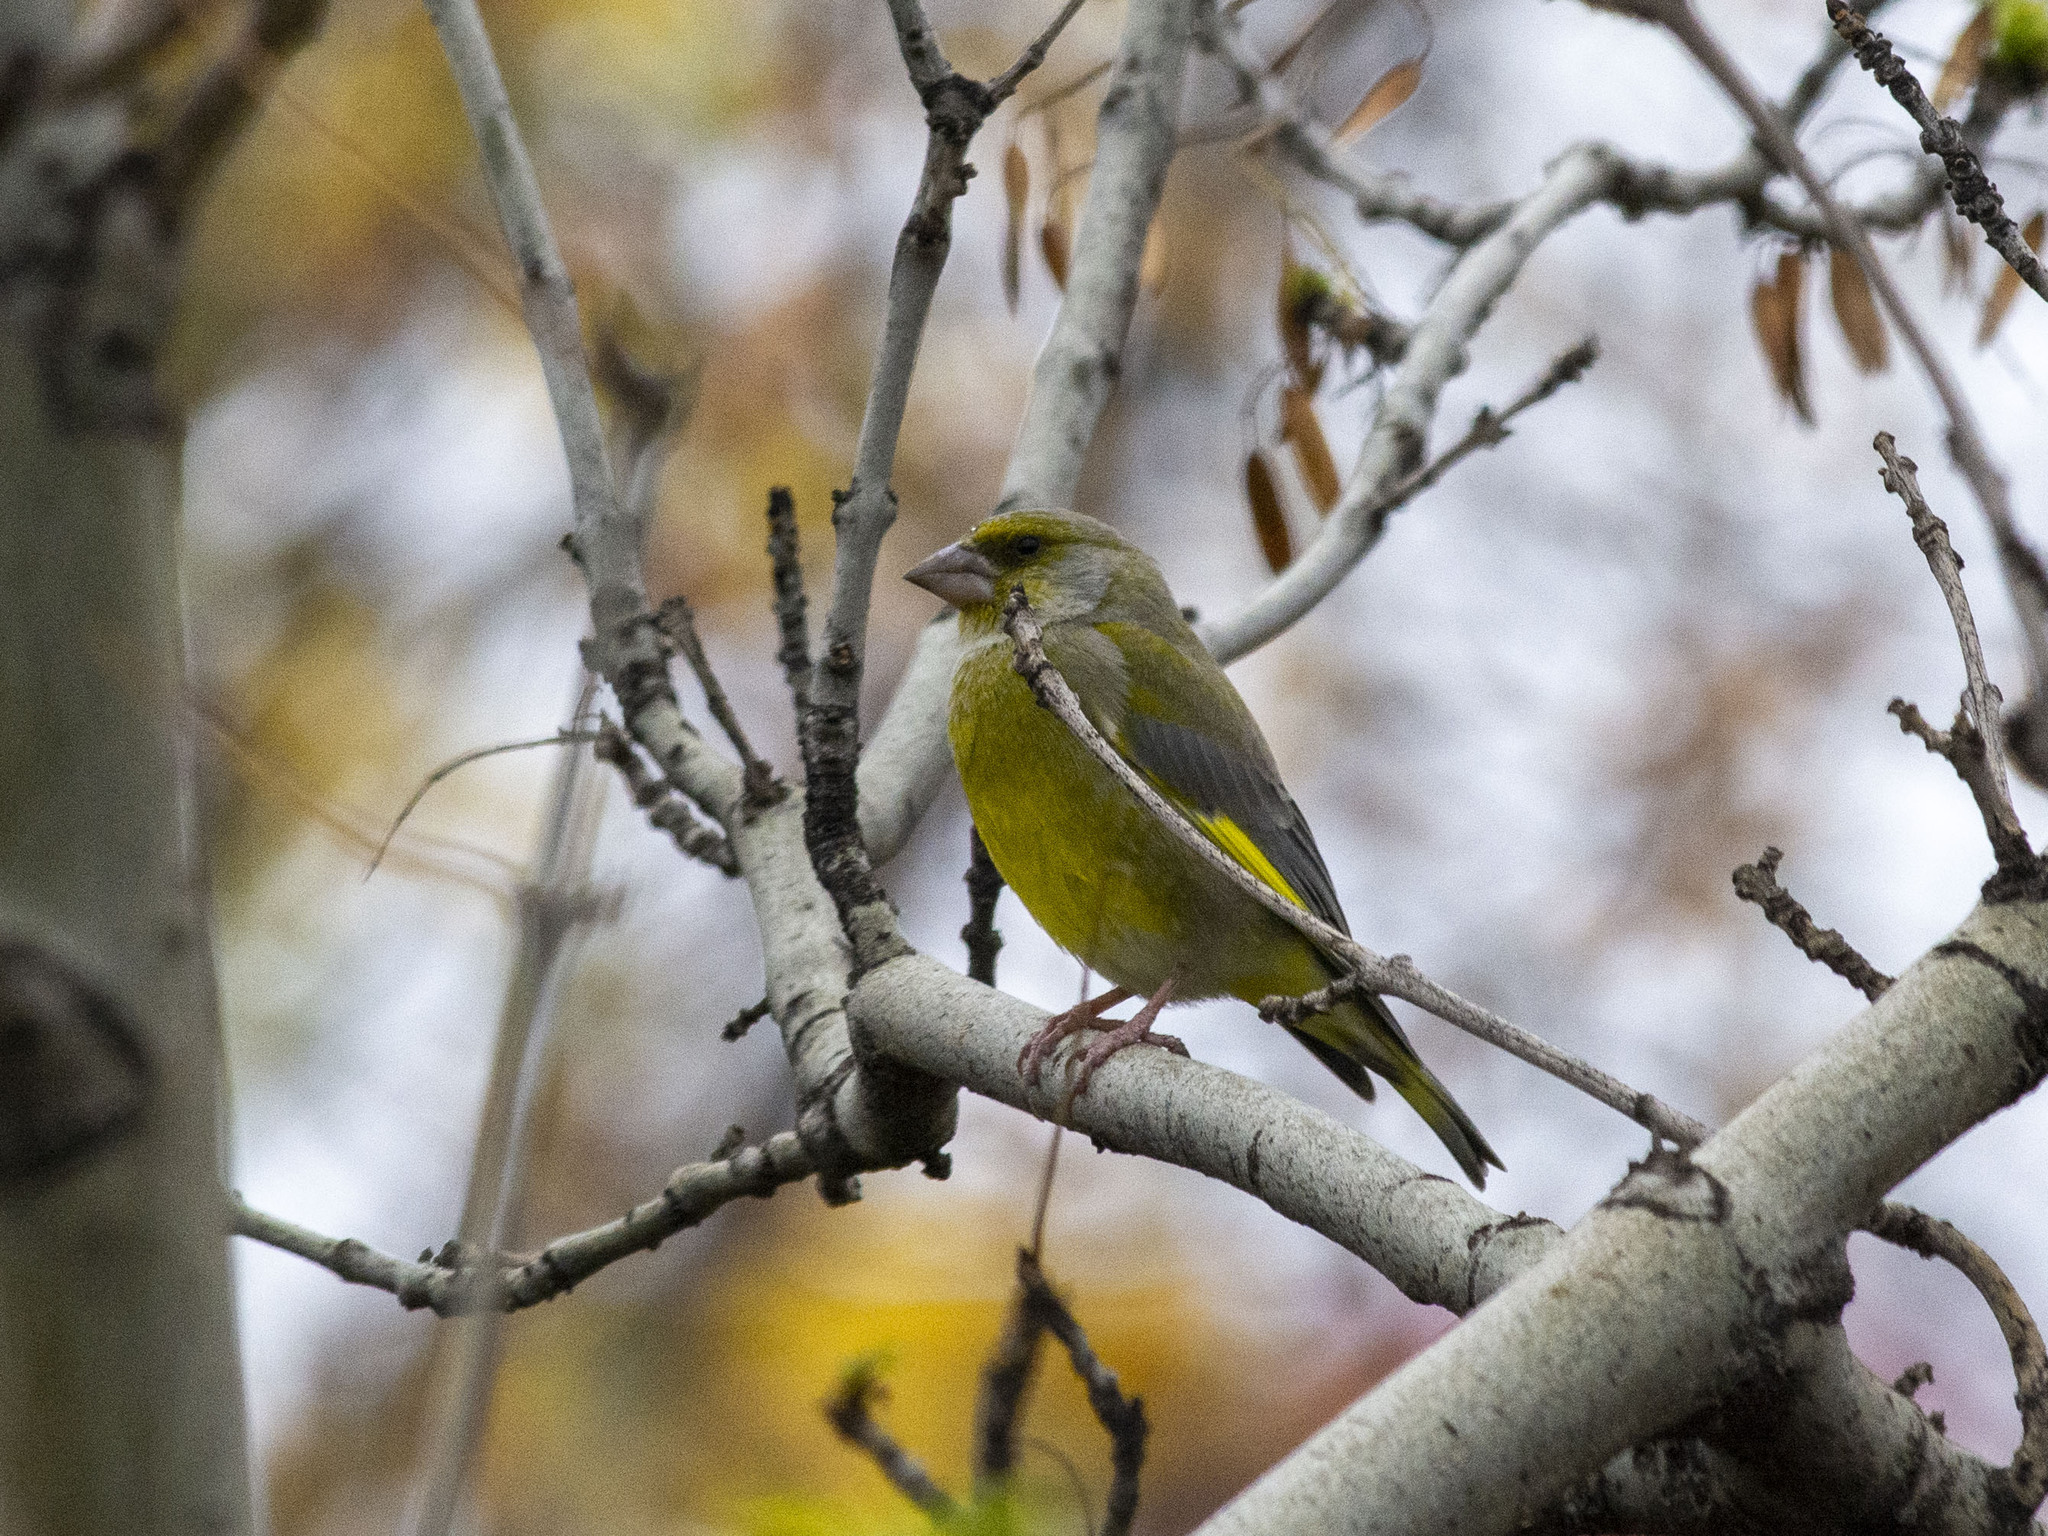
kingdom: Plantae
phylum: Tracheophyta
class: Liliopsida
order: Poales
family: Poaceae
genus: Chloris
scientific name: Chloris chloris
